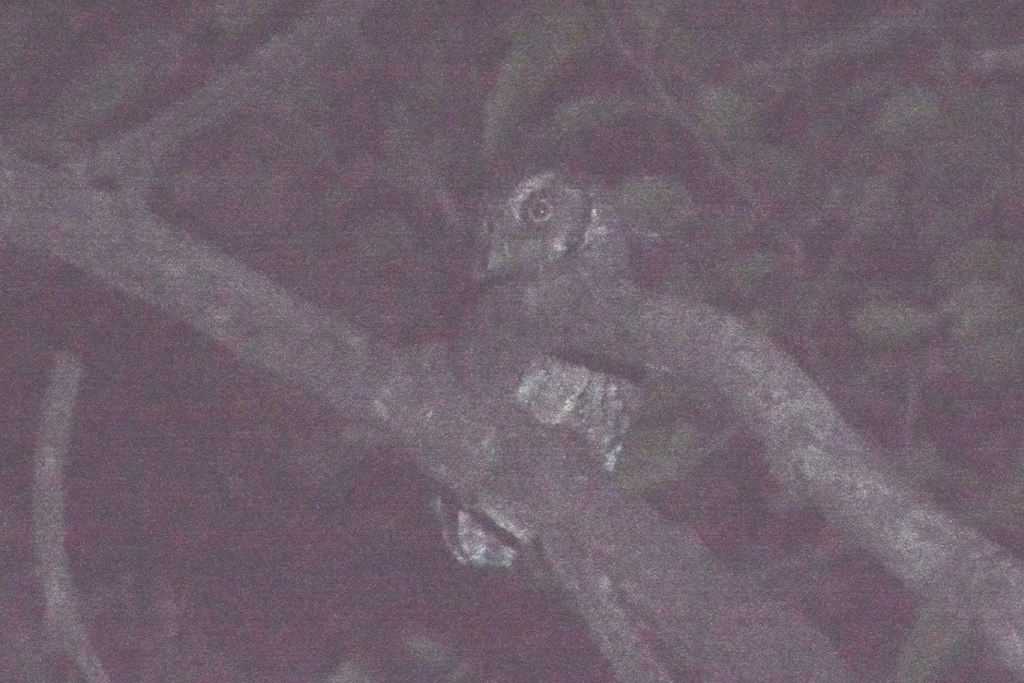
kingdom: Animalia
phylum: Chordata
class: Aves
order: Strigiformes
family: Strigidae
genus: Megascops
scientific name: Megascops choliba
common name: Tropical screech-owl
